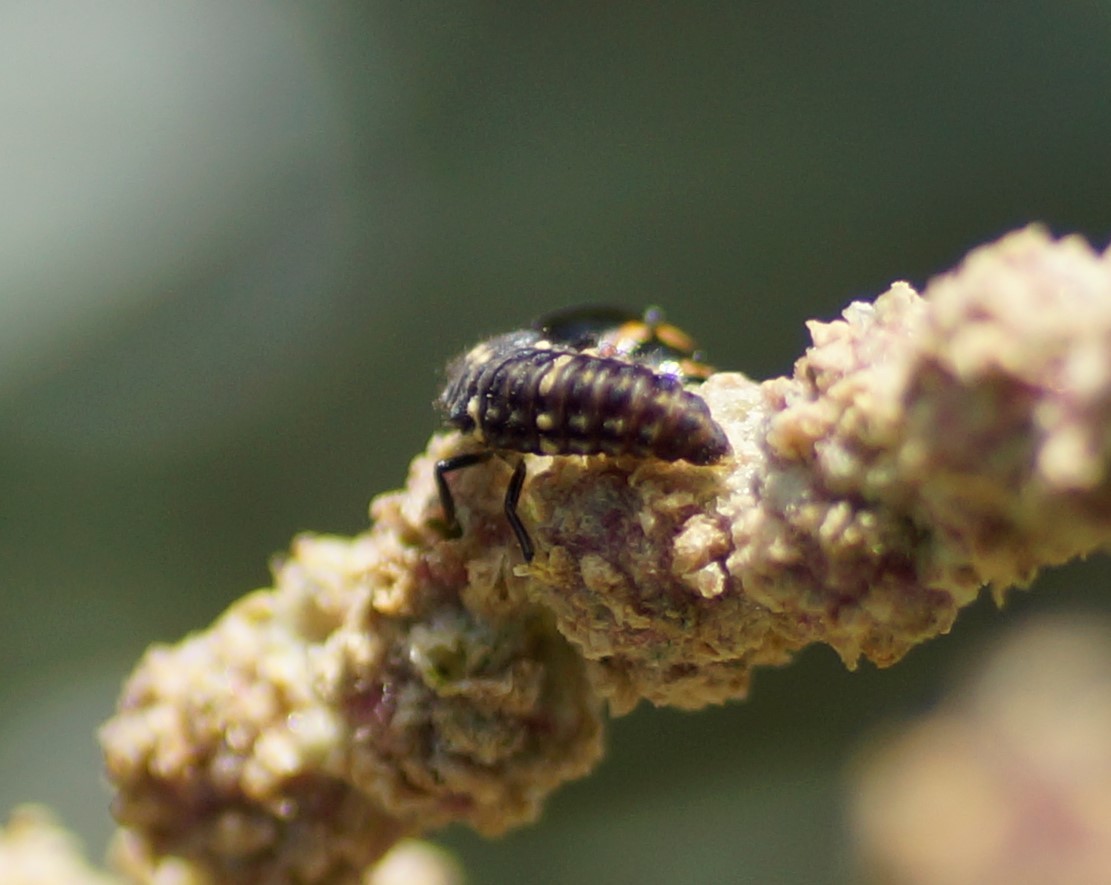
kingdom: Animalia
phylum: Arthropoda
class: Insecta
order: Coleoptera
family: Coccinellidae
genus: Micraspis
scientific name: Micraspis
